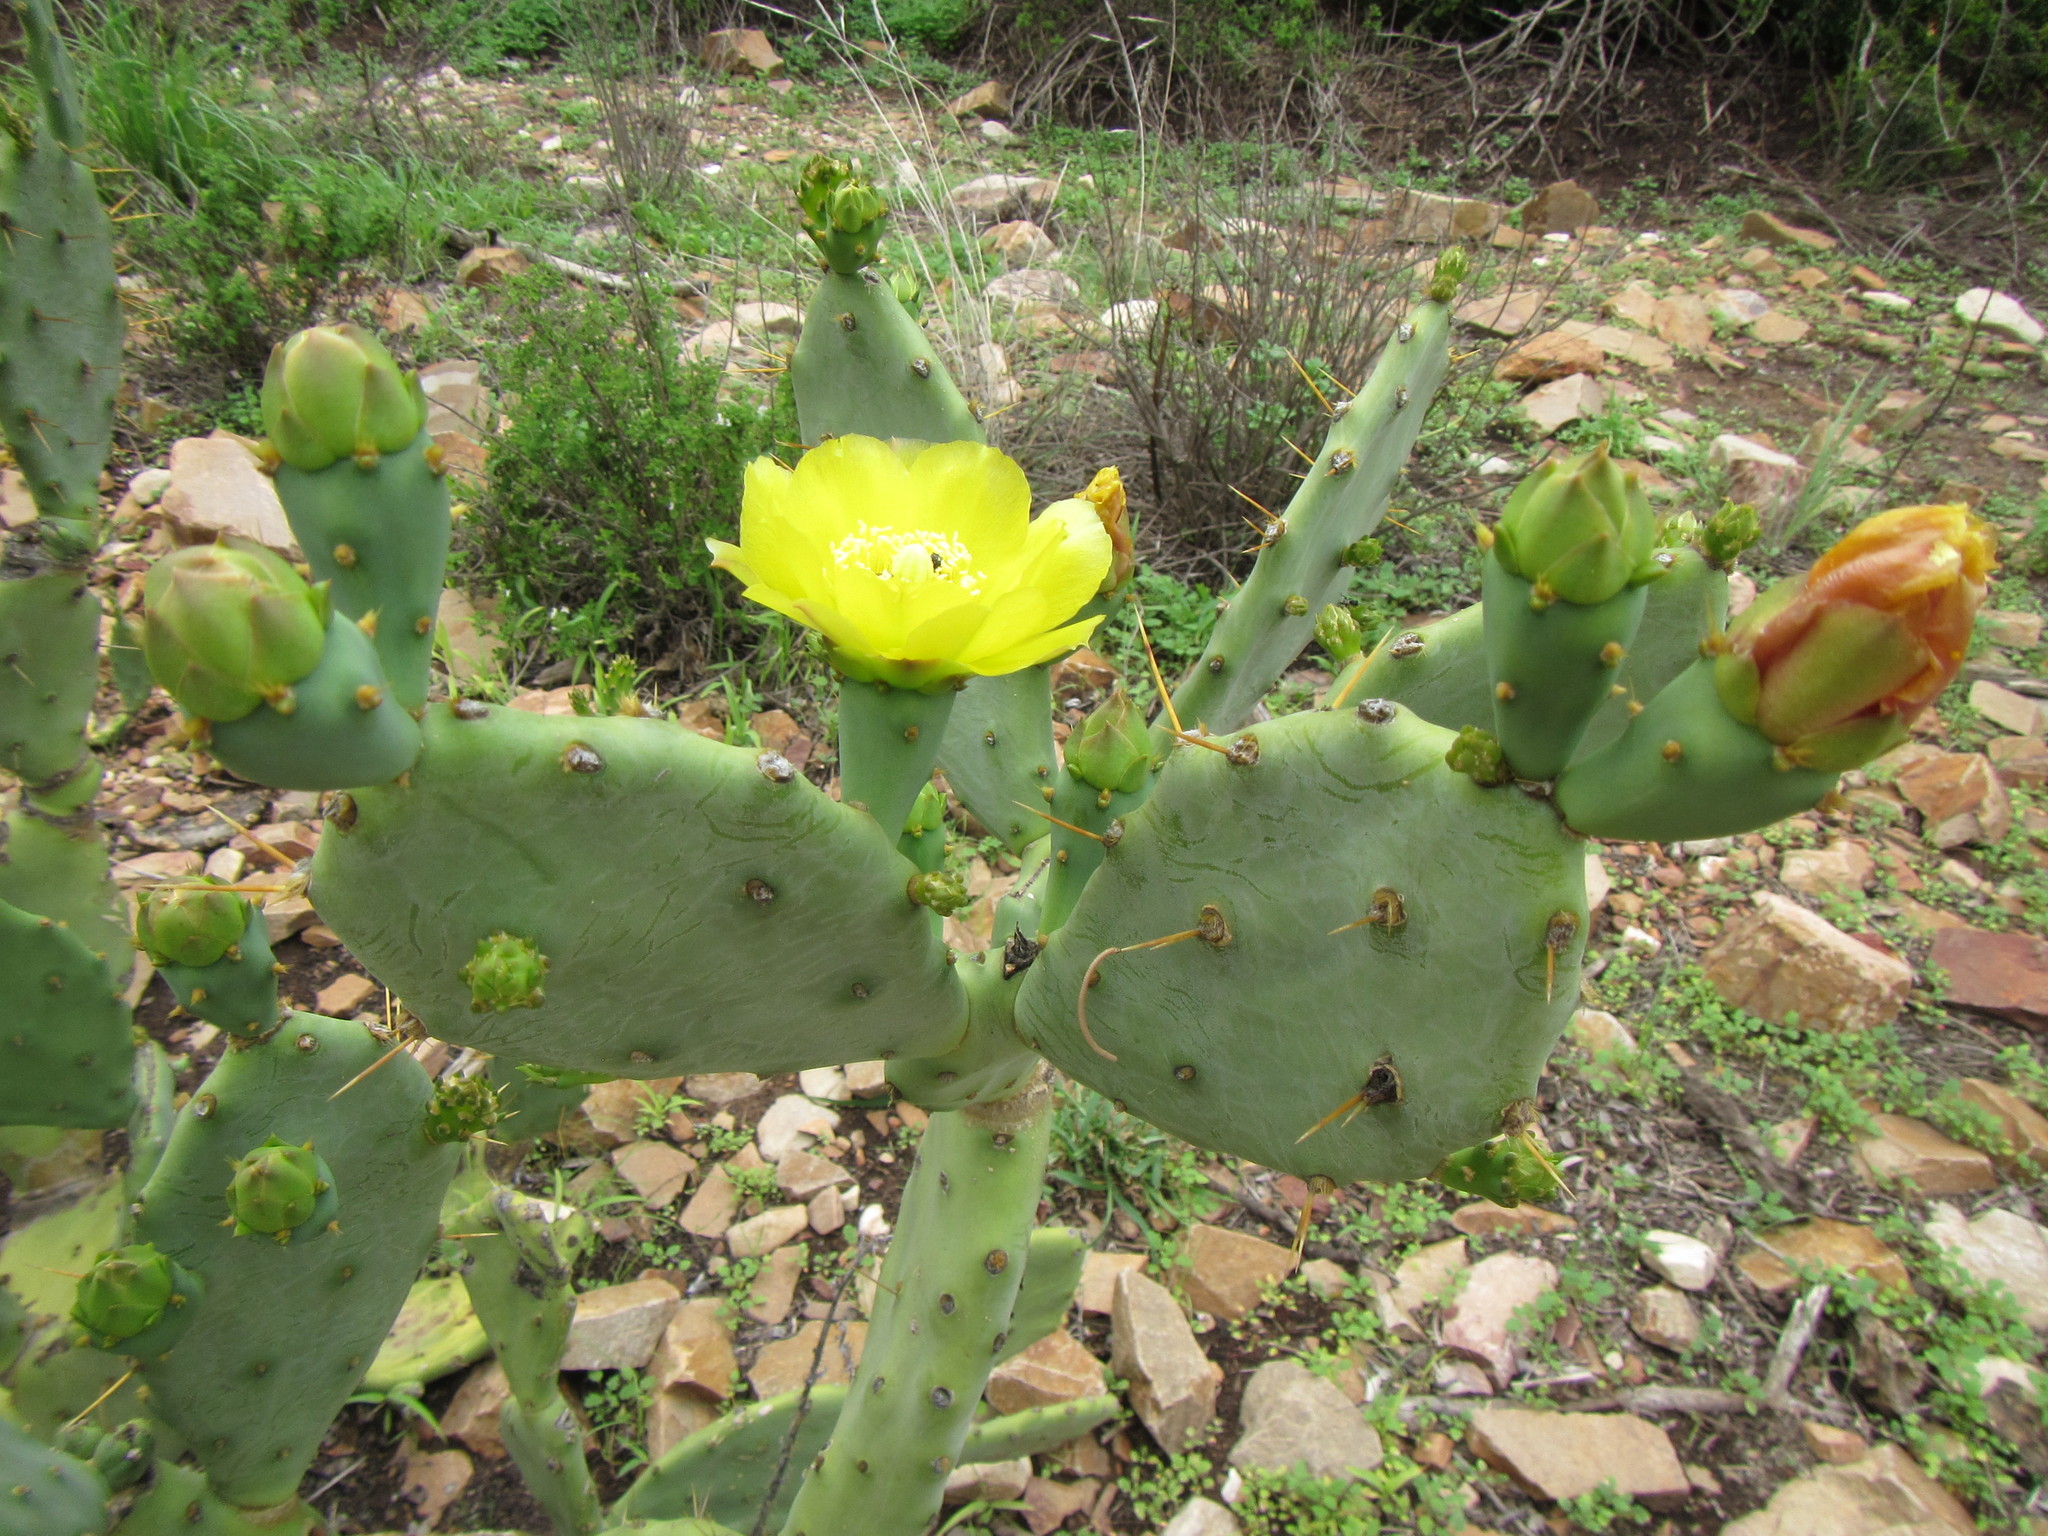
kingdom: Plantae
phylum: Tracheophyta
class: Magnoliopsida
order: Caryophyllales
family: Cactaceae
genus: Opuntia
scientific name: Opuntia stricta
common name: Erect pricklypear
